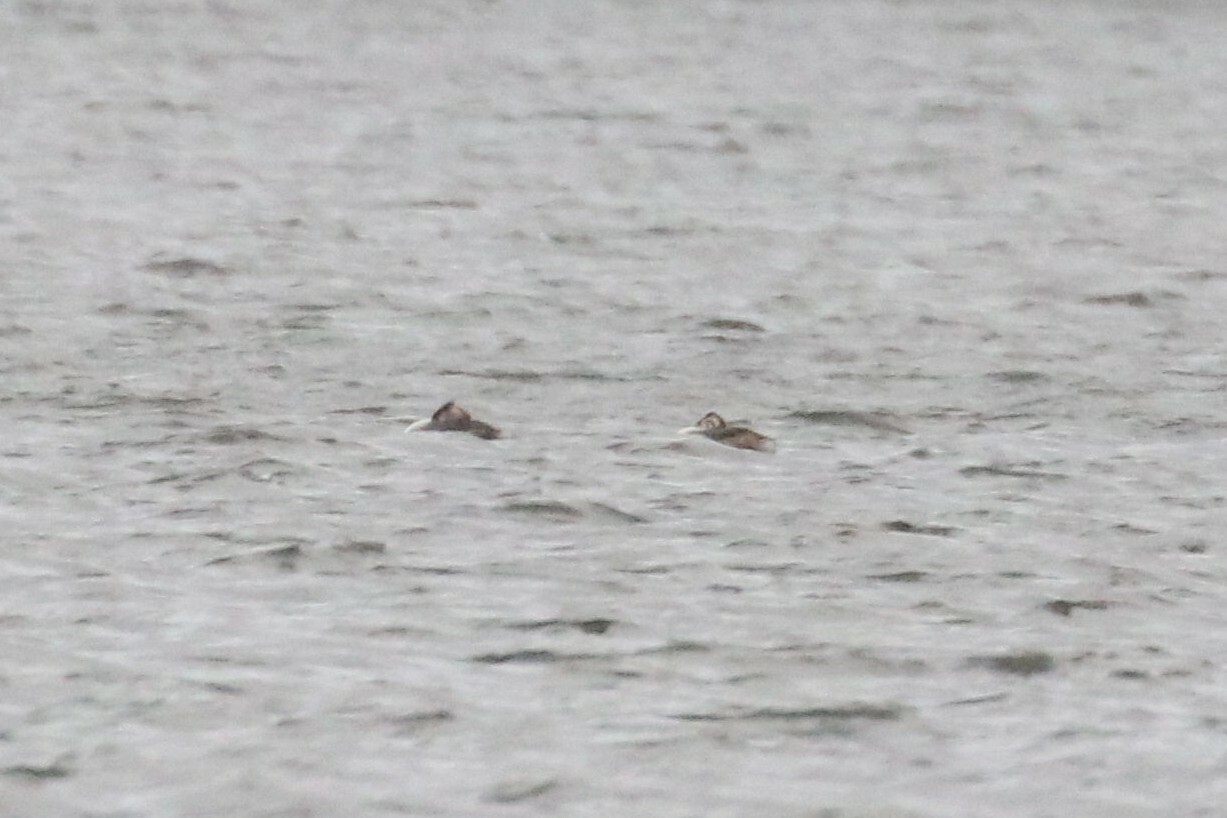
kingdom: Animalia
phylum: Chordata
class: Aves
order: Podicipediformes
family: Podicipedidae
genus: Podiceps
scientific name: Podiceps cristatus
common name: Great crested grebe
